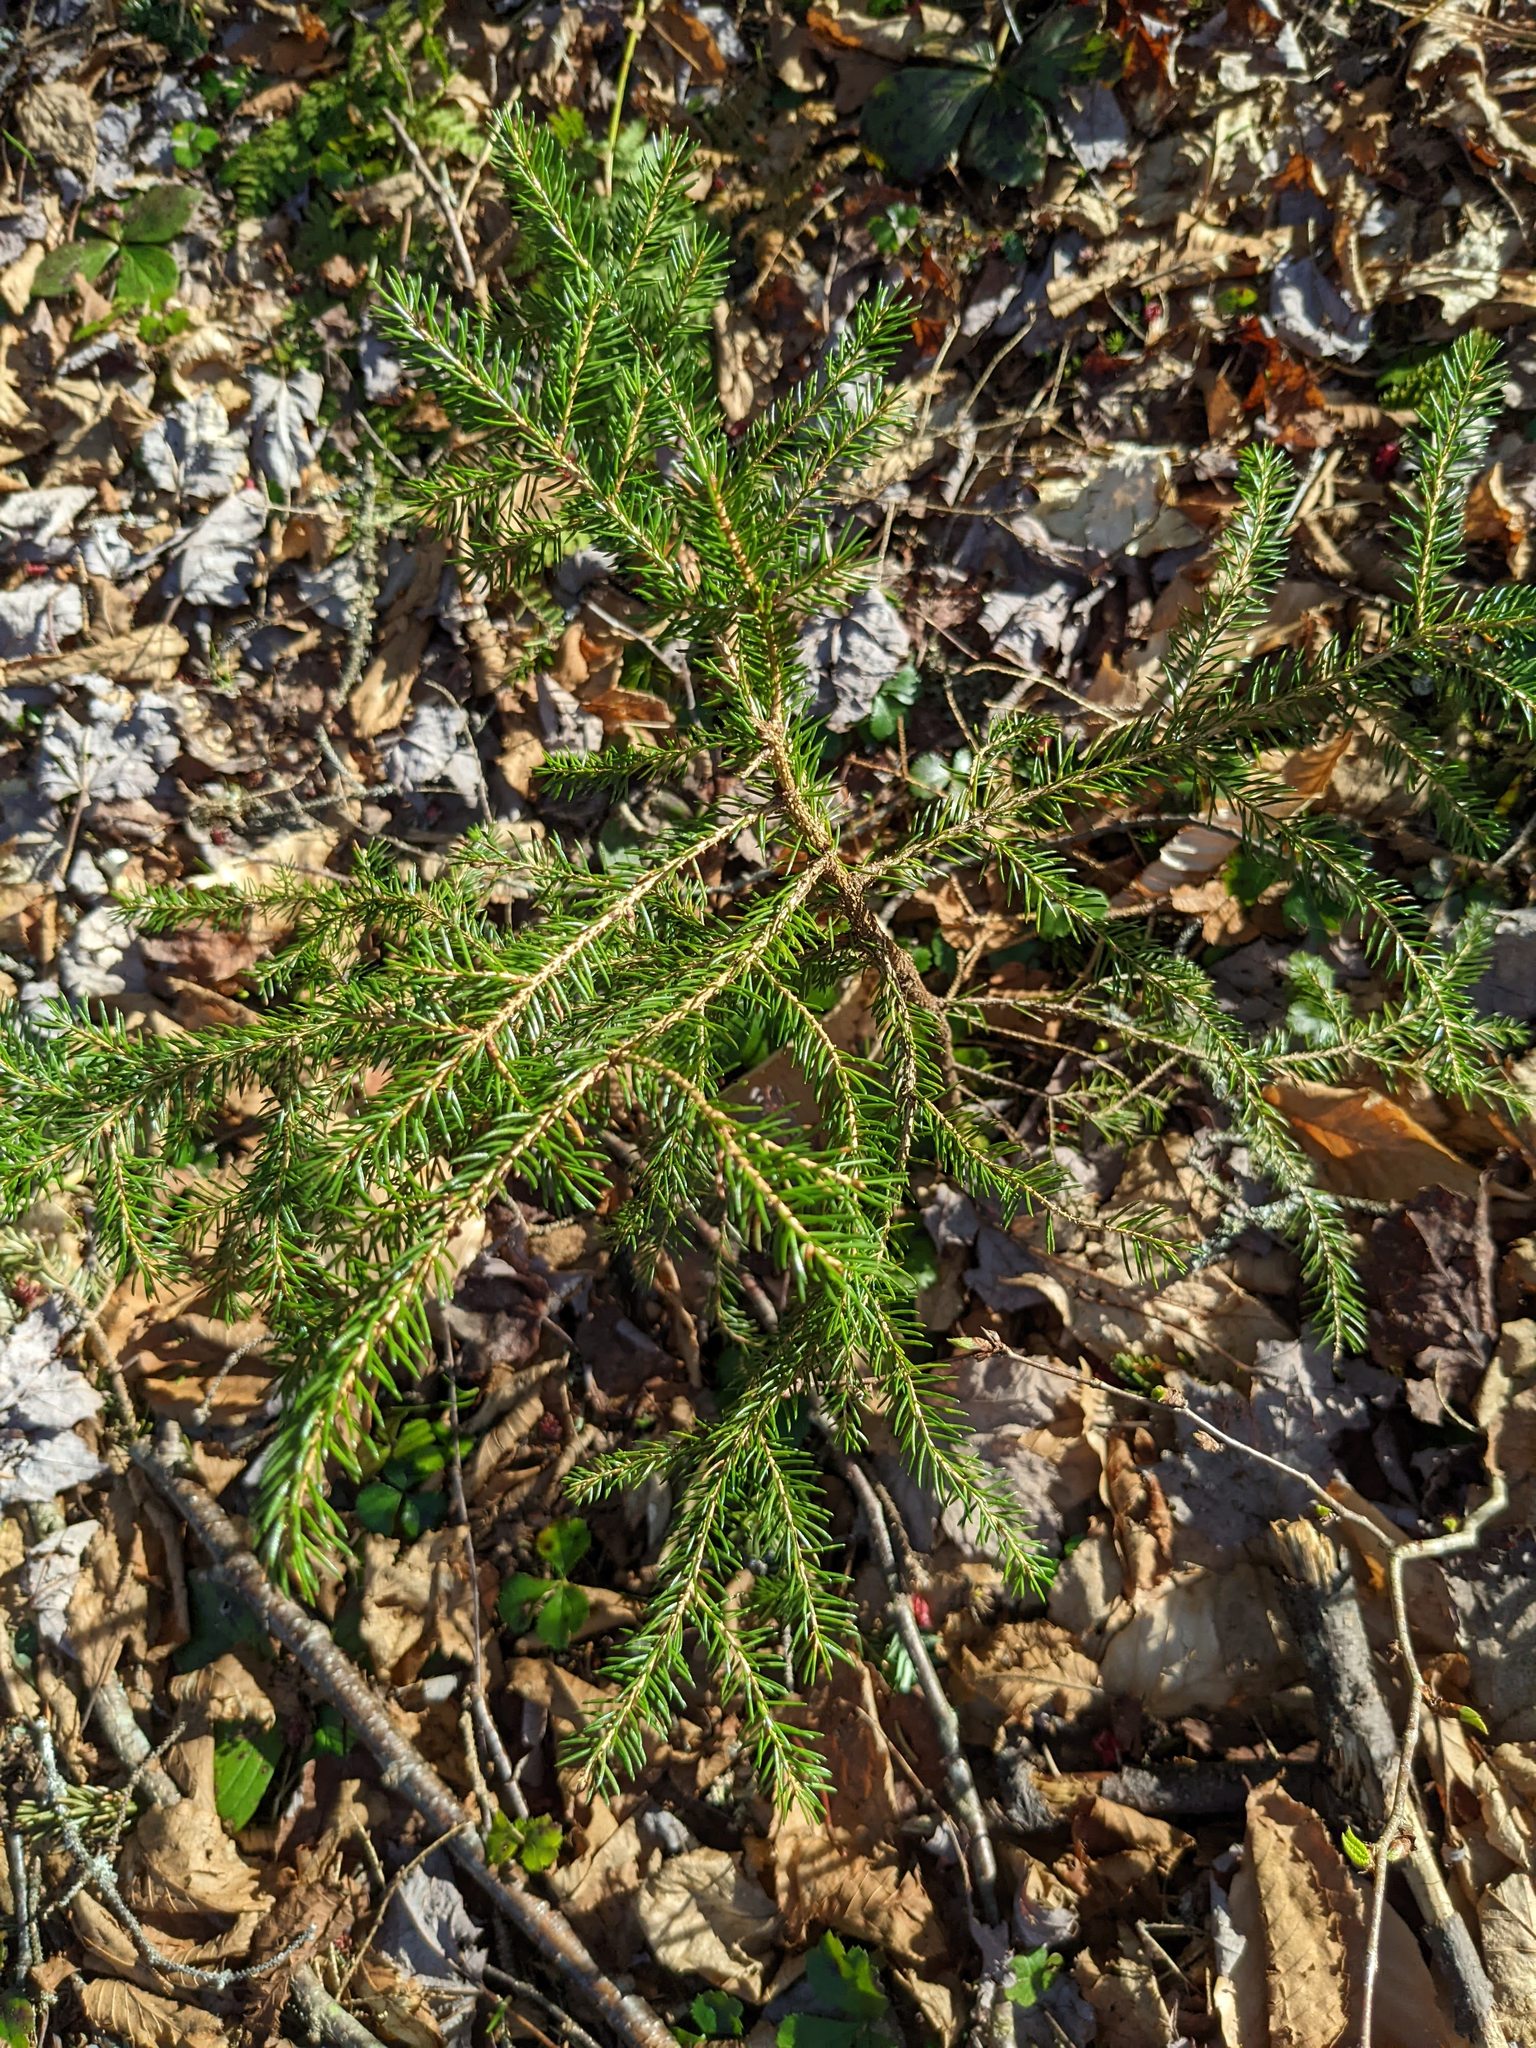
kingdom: Plantae
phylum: Tracheophyta
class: Pinopsida
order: Pinales
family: Pinaceae
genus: Picea
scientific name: Picea rubens
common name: Red spruce
